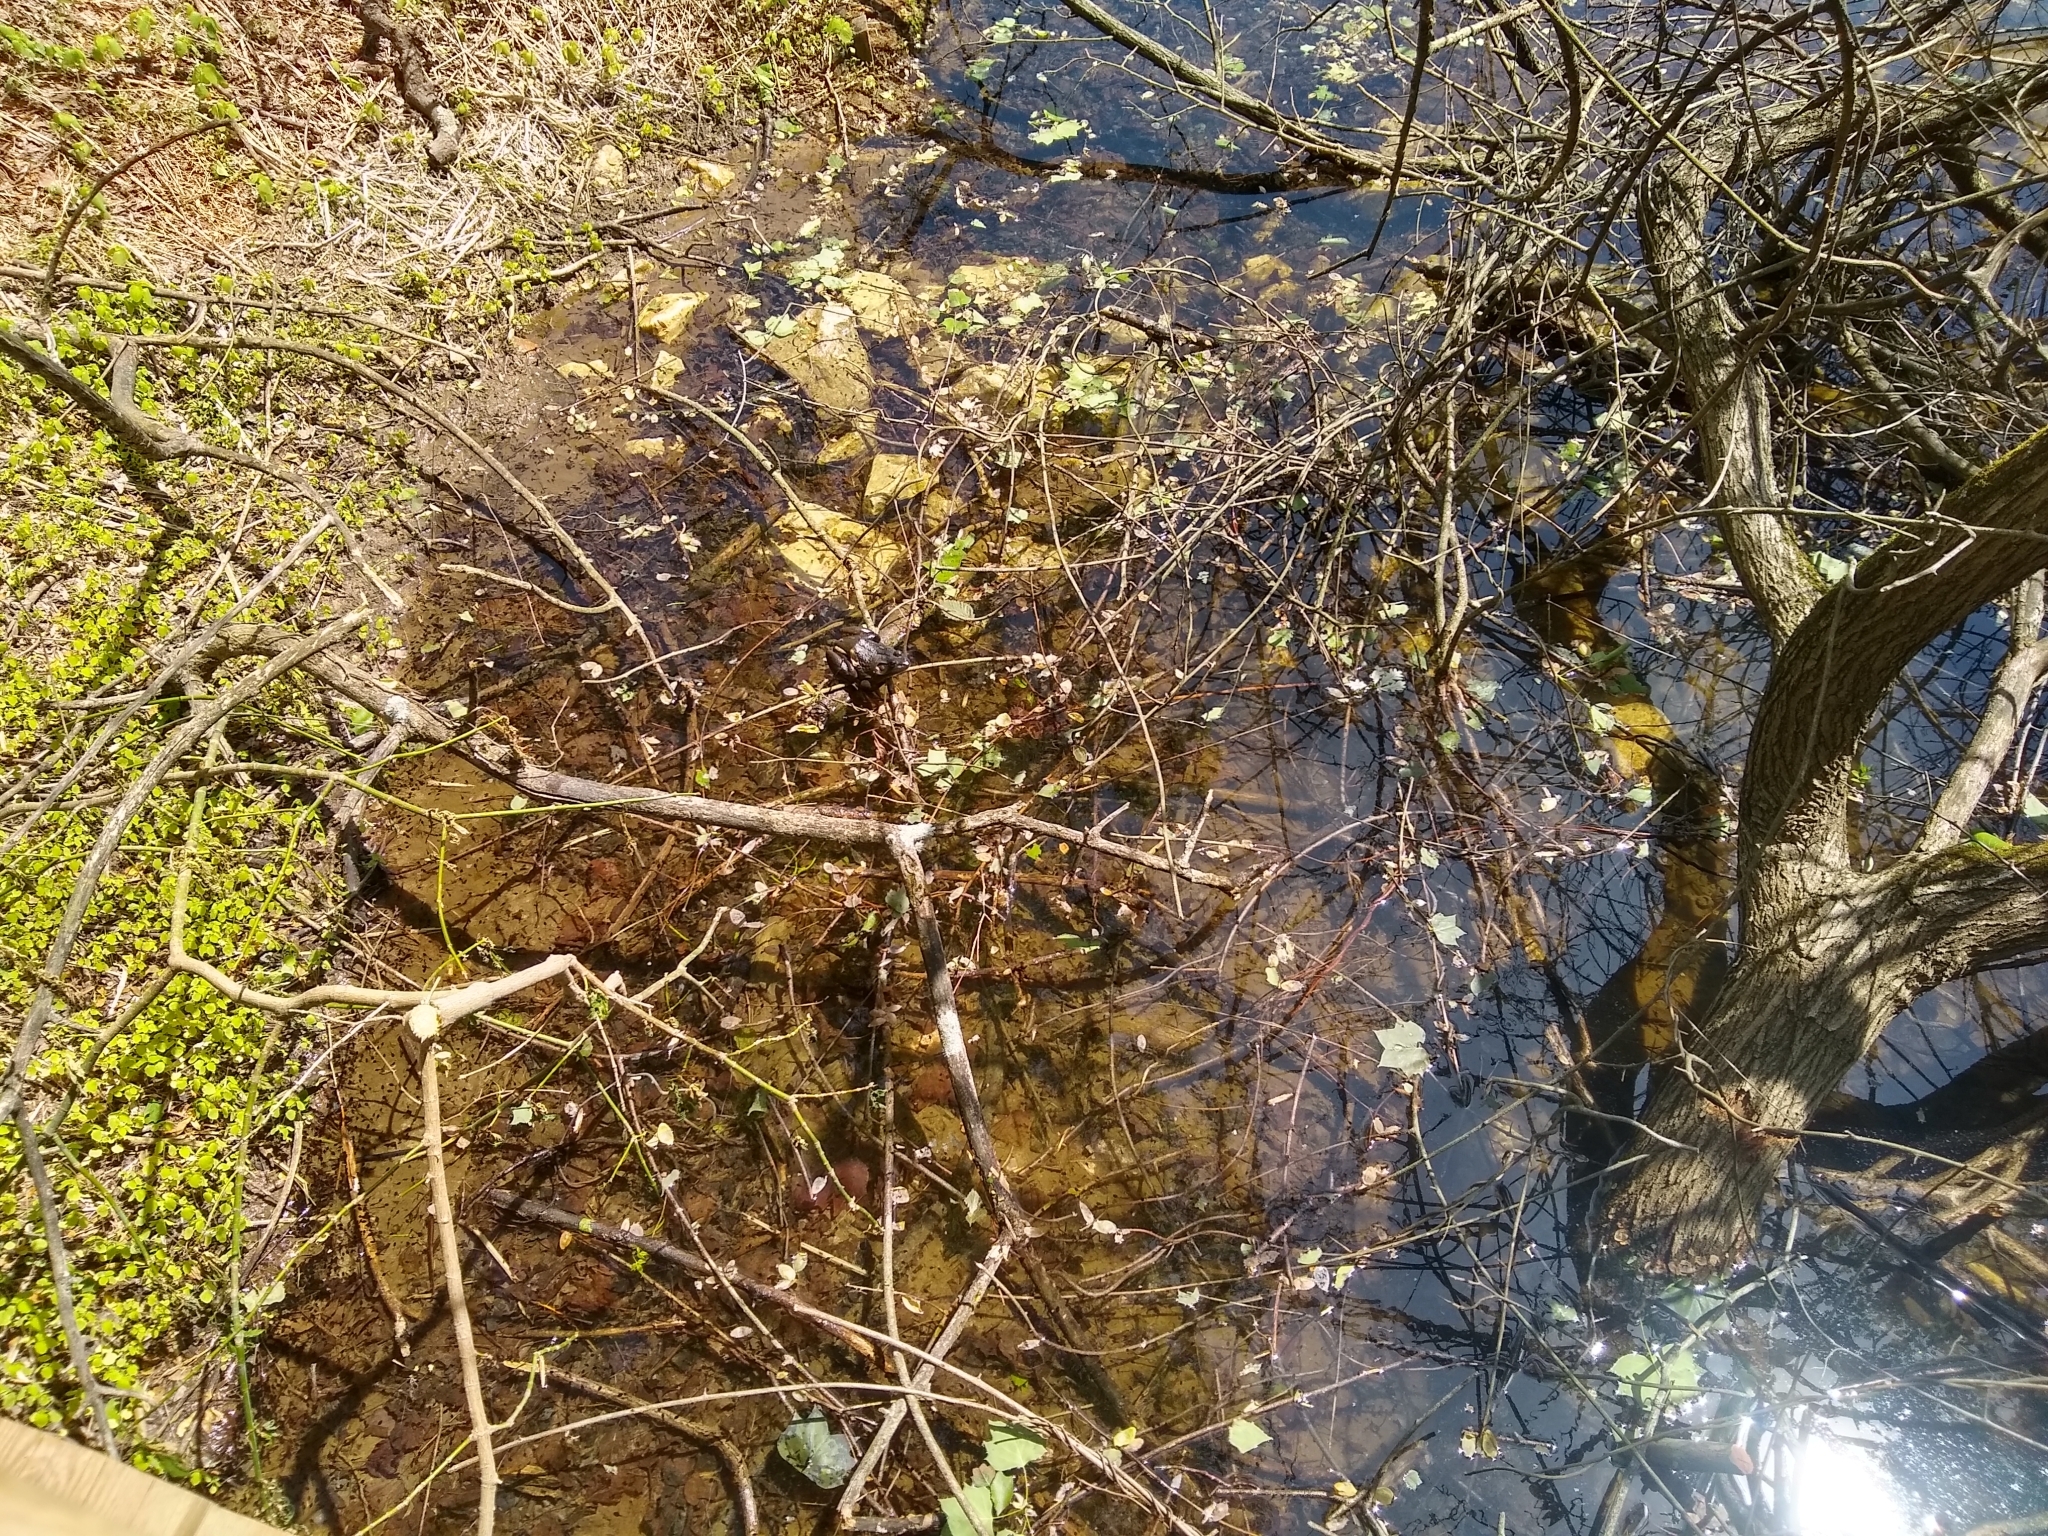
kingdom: Animalia
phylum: Chordata
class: Amphibia
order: Anura
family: Ranidae
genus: Lithobates
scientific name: Lithobates catesbeianus
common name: American bullfrog
